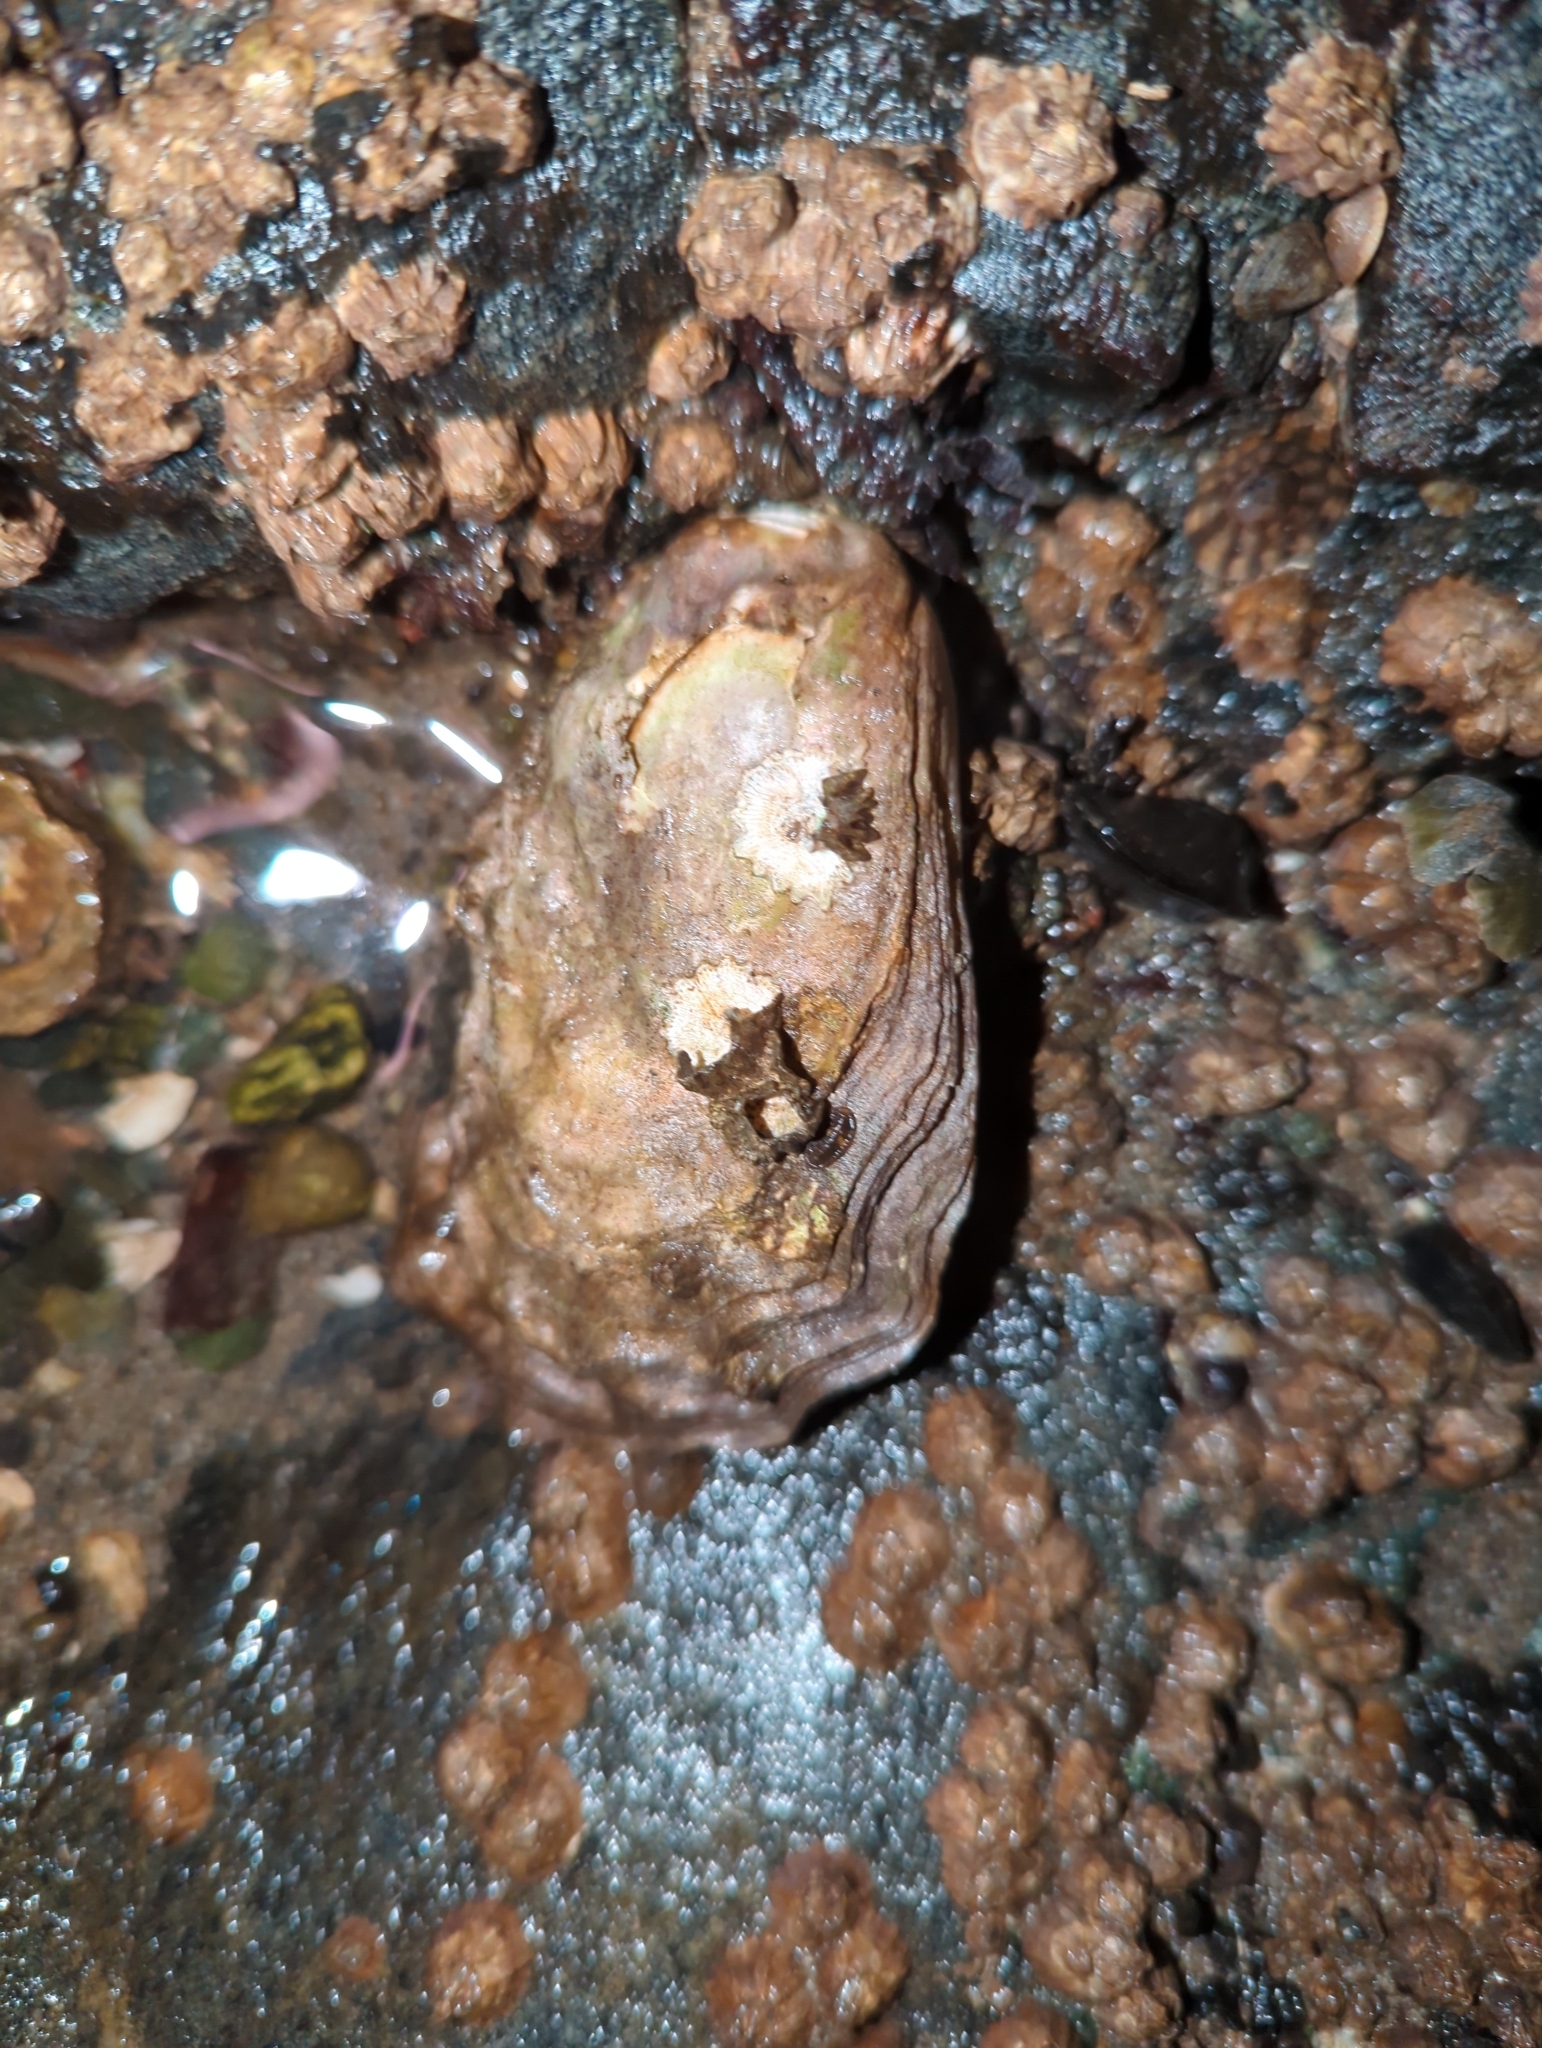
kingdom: Animalia
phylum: Mollusca
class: Bivalvia
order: Ostreida
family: Ostreidae
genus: Magallana
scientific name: Magallana gigas
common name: Pacific oyster
